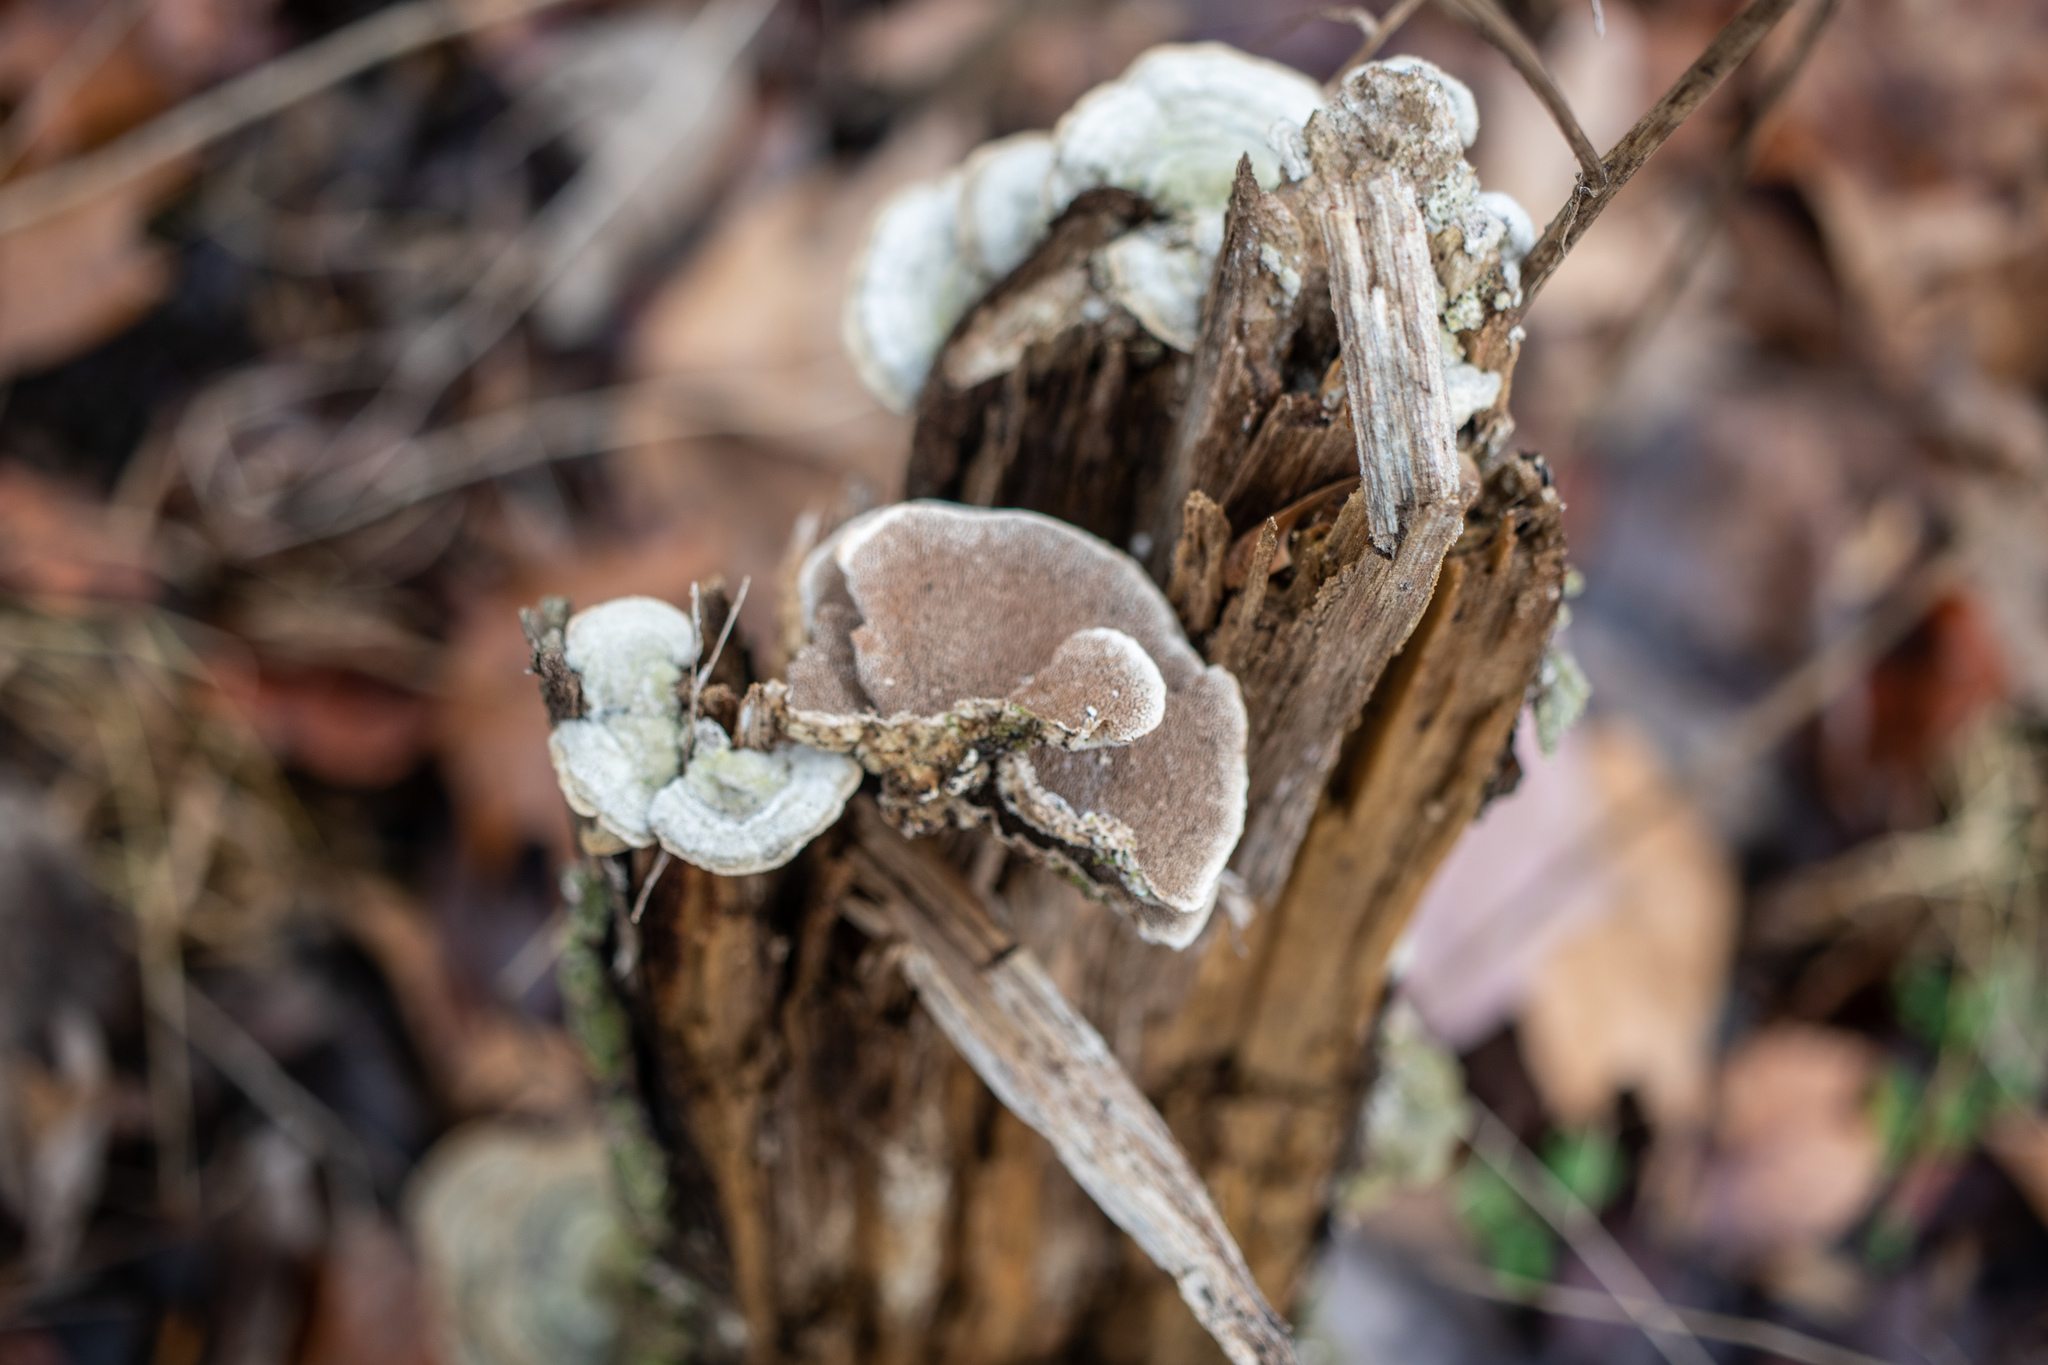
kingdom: Fungi
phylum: Basidiomycota
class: Agaricomycetes
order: Polyporales
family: Cerrenaceae
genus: Cerrena
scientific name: Cerrena unicolor
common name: Mossy maze polypore
